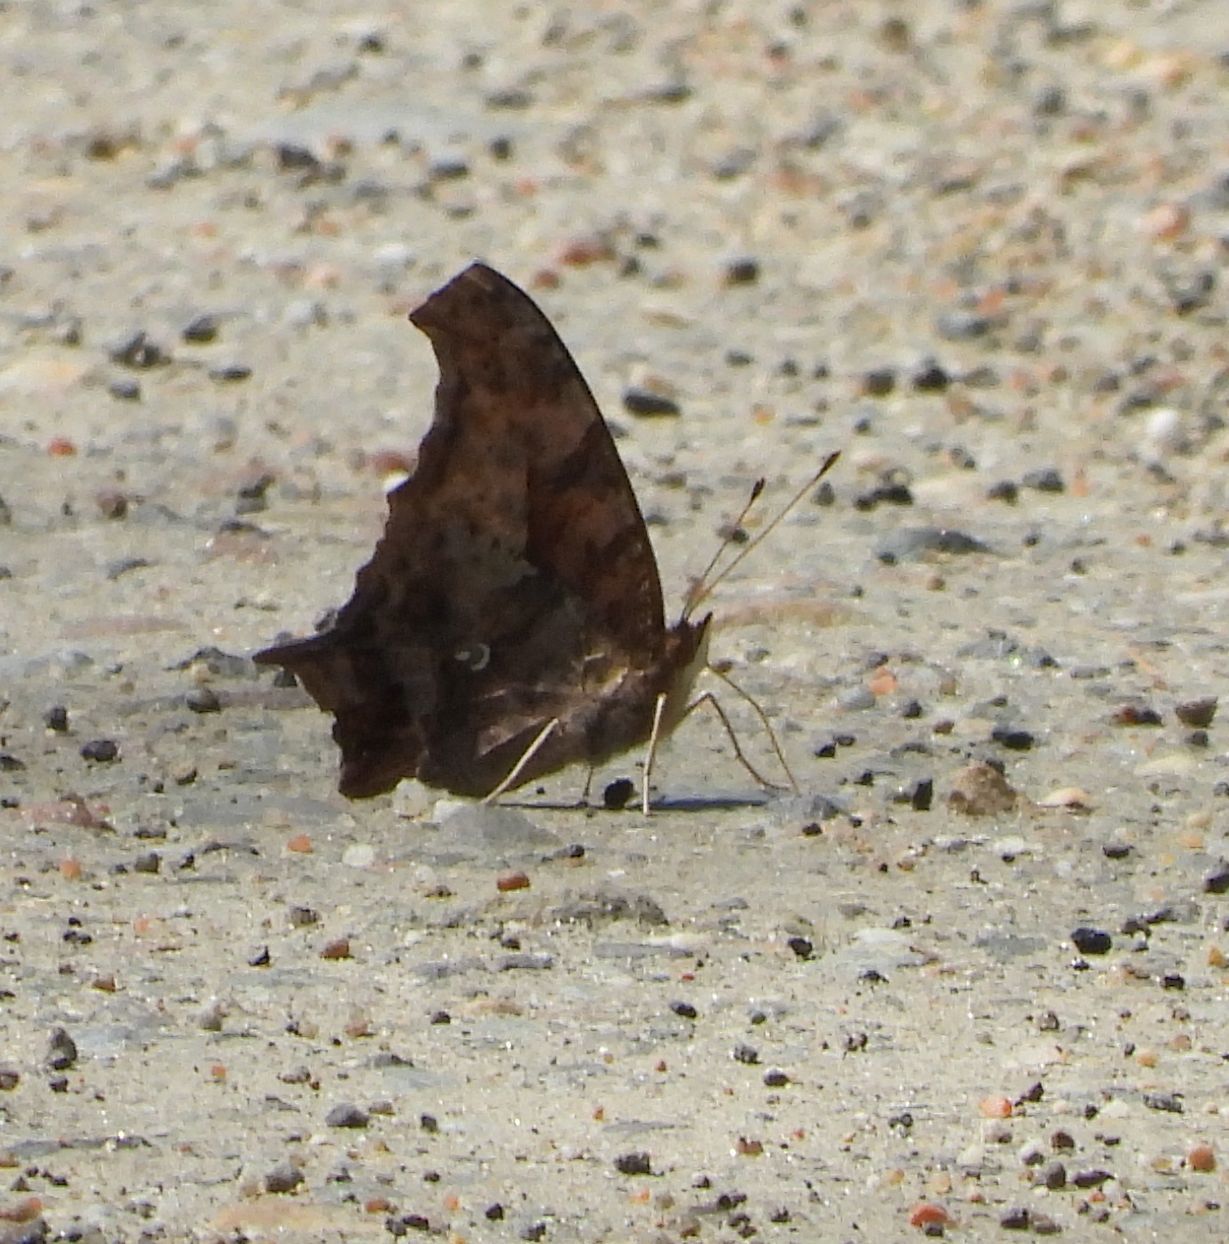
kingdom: Animalia
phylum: Arthropoda
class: Insecta
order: Lepidoptera
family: Nymphalidae
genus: Polygonia
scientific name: Polygonia interrogationis
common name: Question mark
